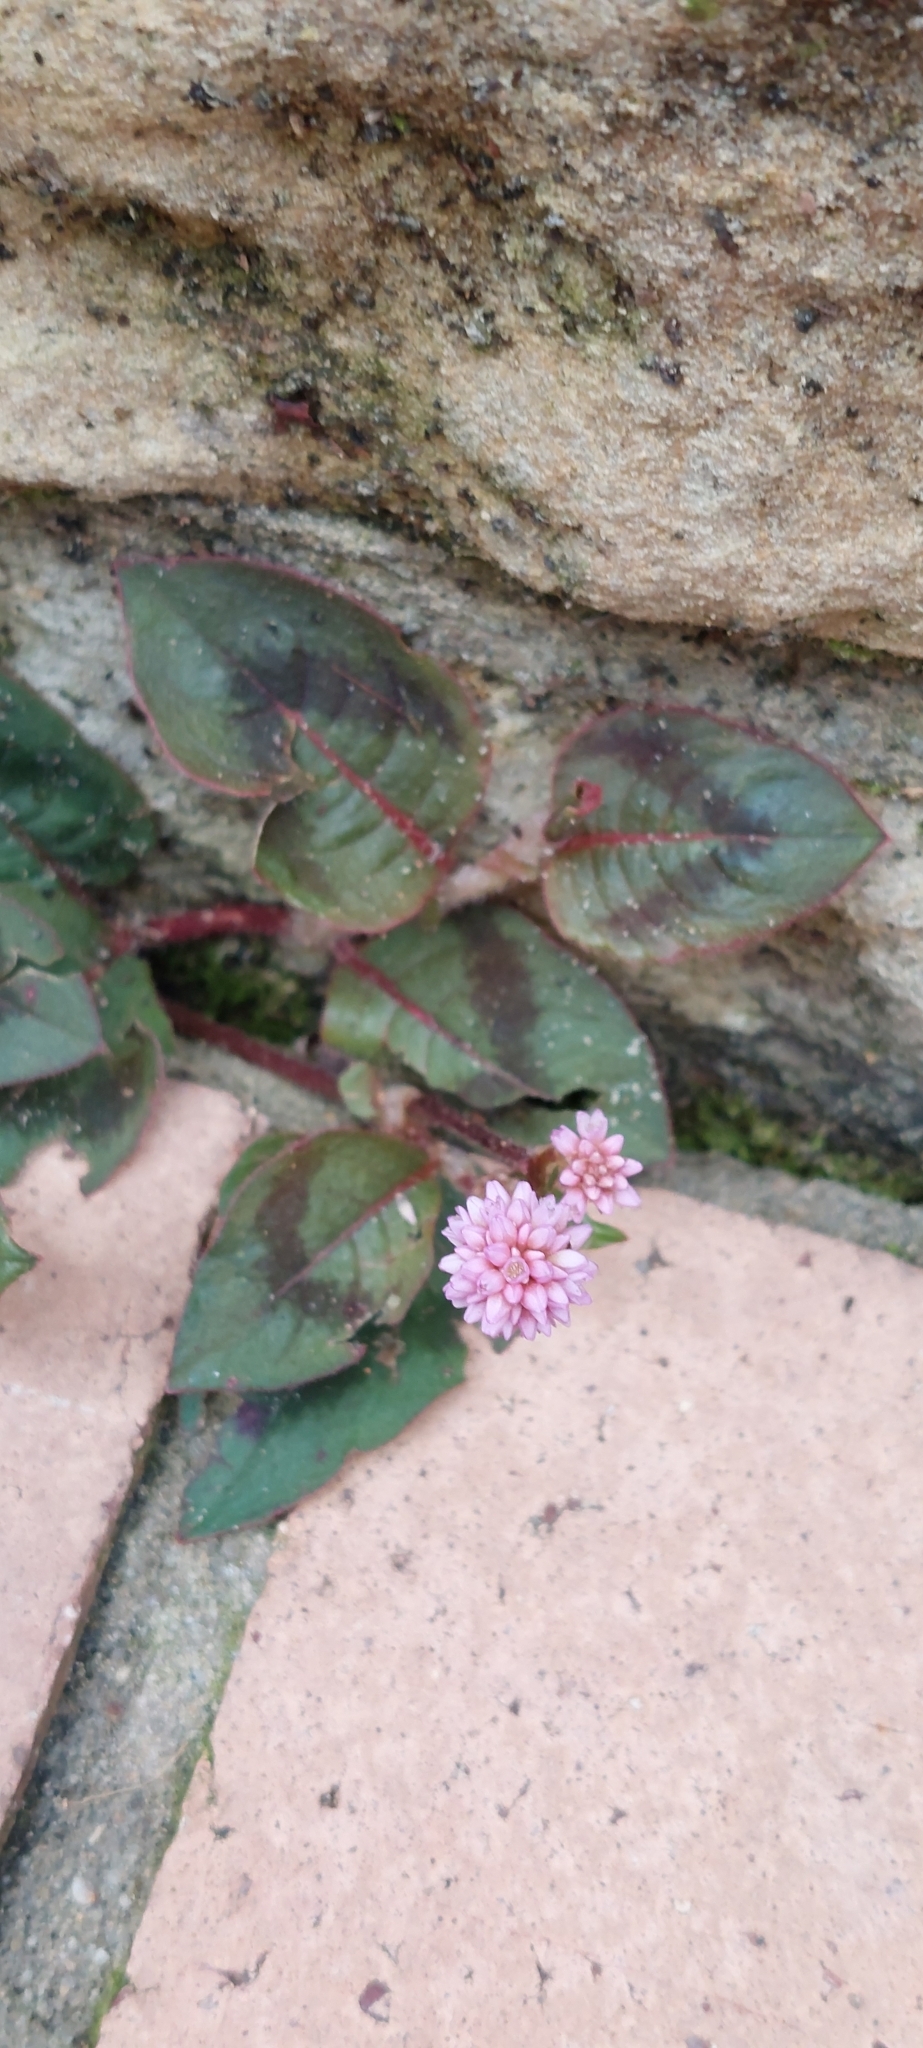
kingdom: Plantae
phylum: Tracheophyta
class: Magnoliopsida
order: Caryophyllales
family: Polygonaceae
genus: Persicaria
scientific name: Persicaria capitata
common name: Pinkhead smartweed
